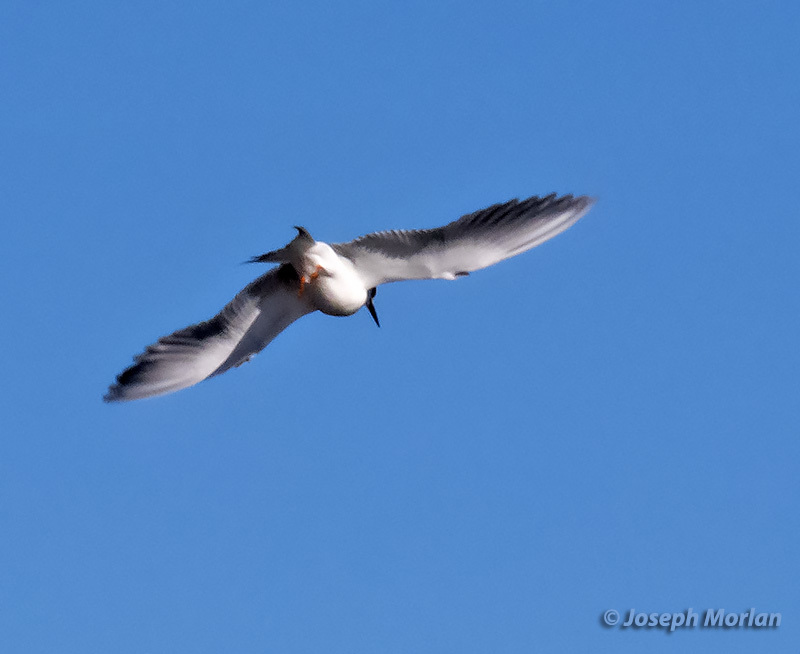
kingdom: Animalia
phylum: Chordata
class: Aves
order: Charadriiformes
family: Laridae
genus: Sterna
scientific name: Sterna forsteri
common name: Forster's tern
